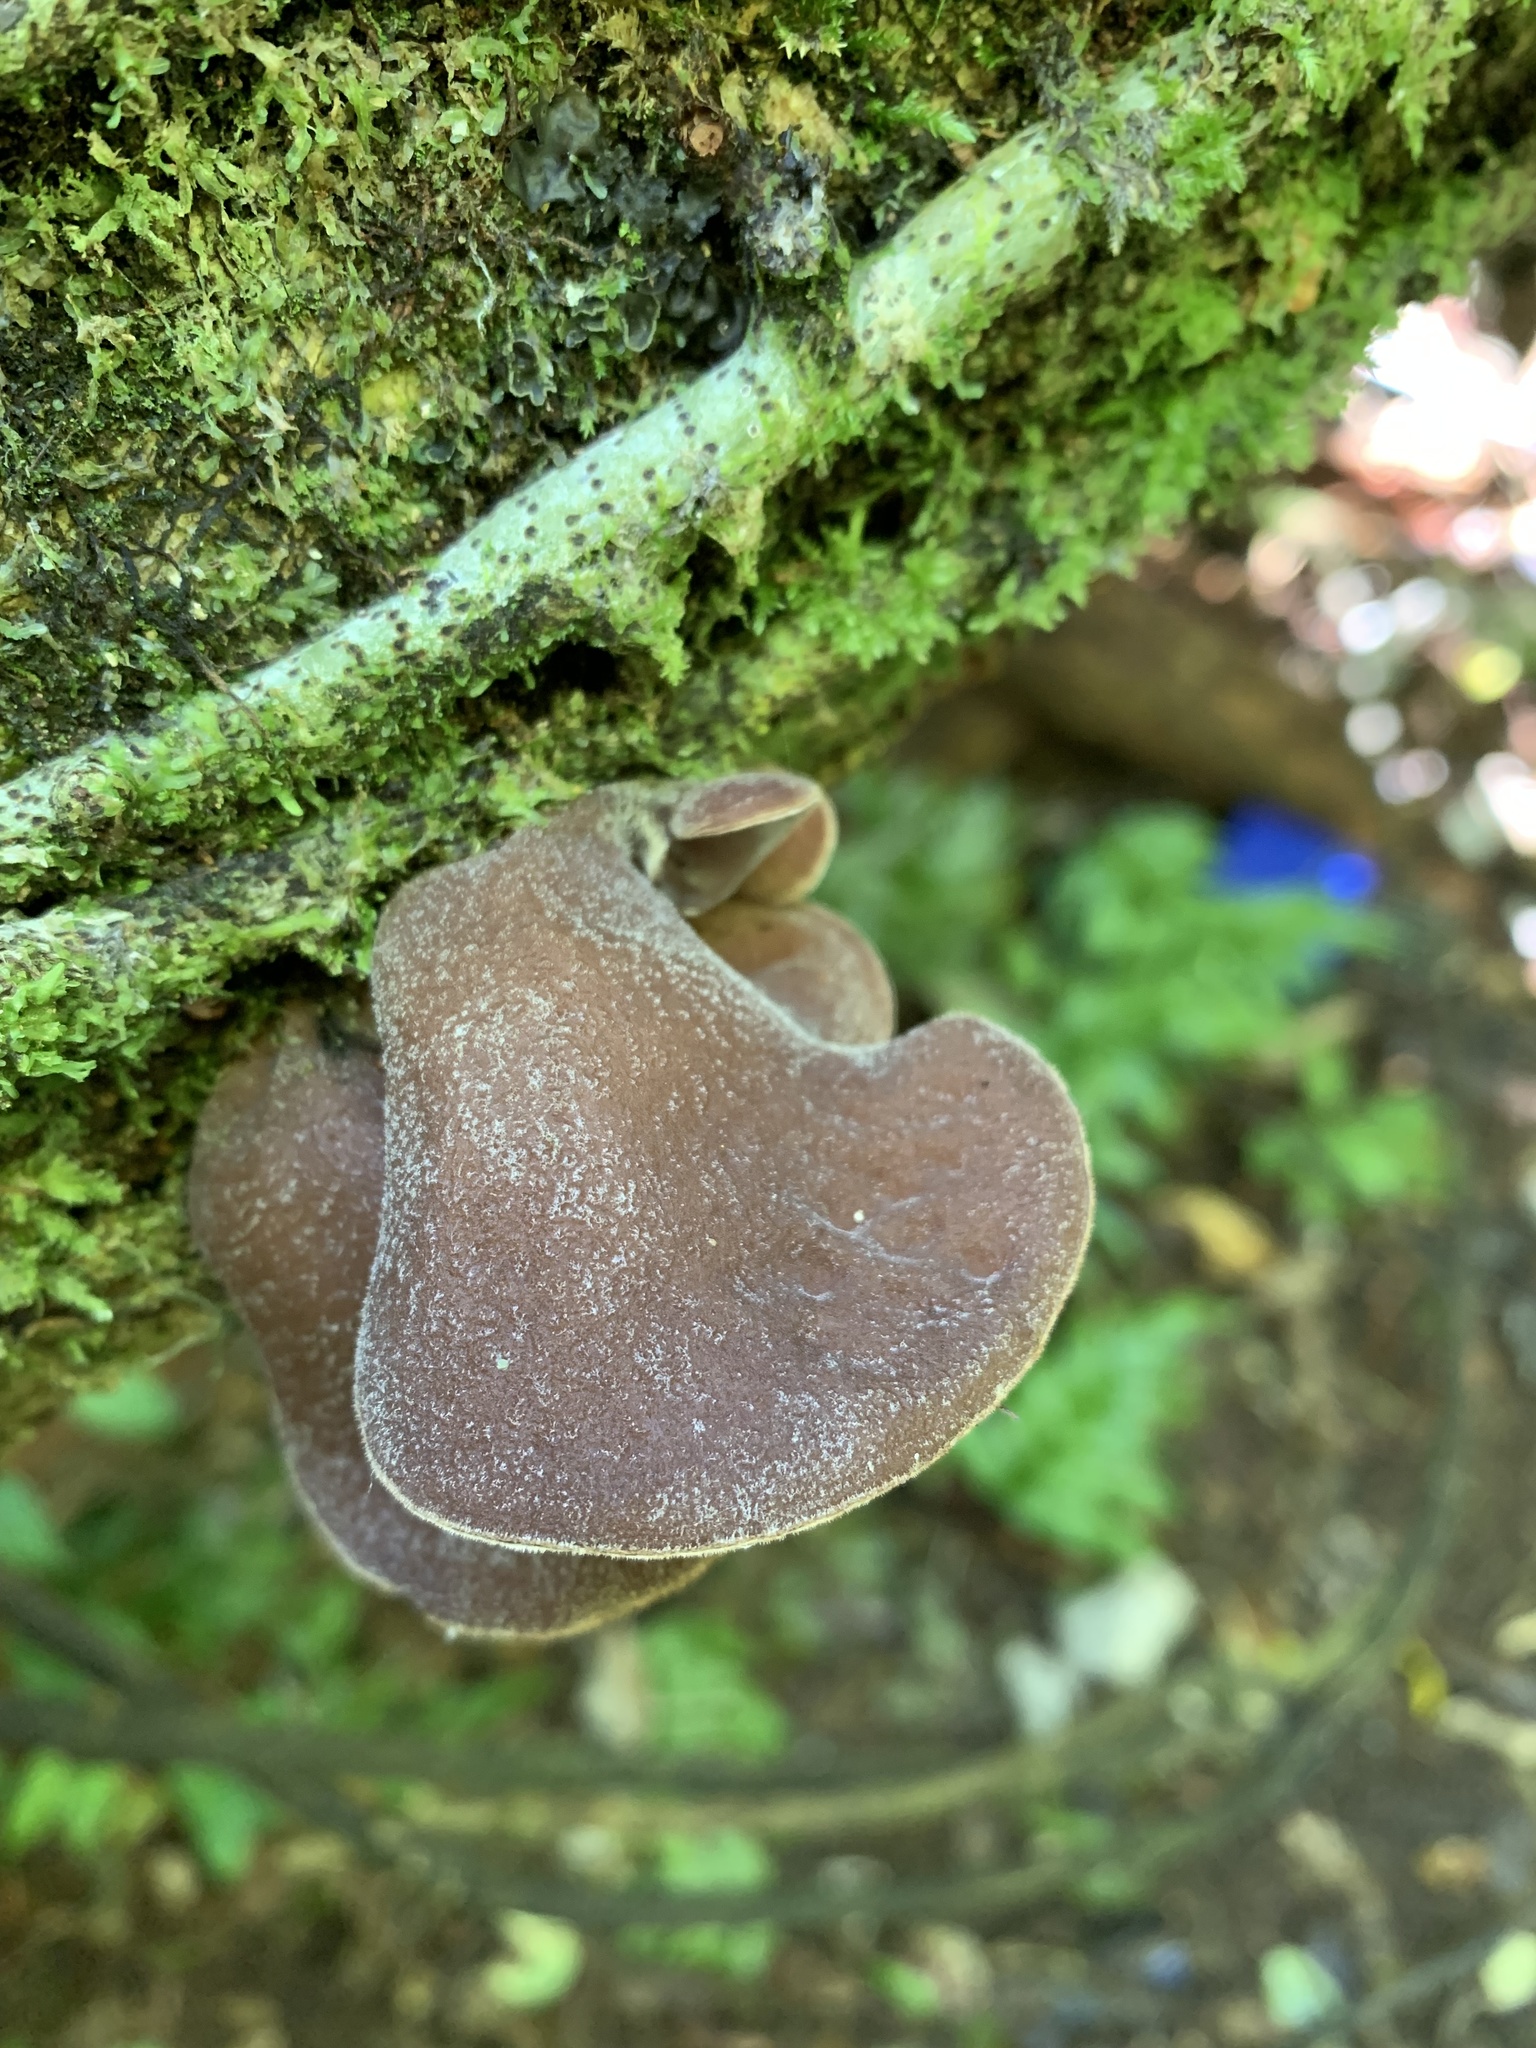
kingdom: Fungi
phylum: Basidiomycota
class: Agaricomycetes
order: Auriculariales
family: Auriculariaceae
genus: Auricularia
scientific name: Auricularia cornea
